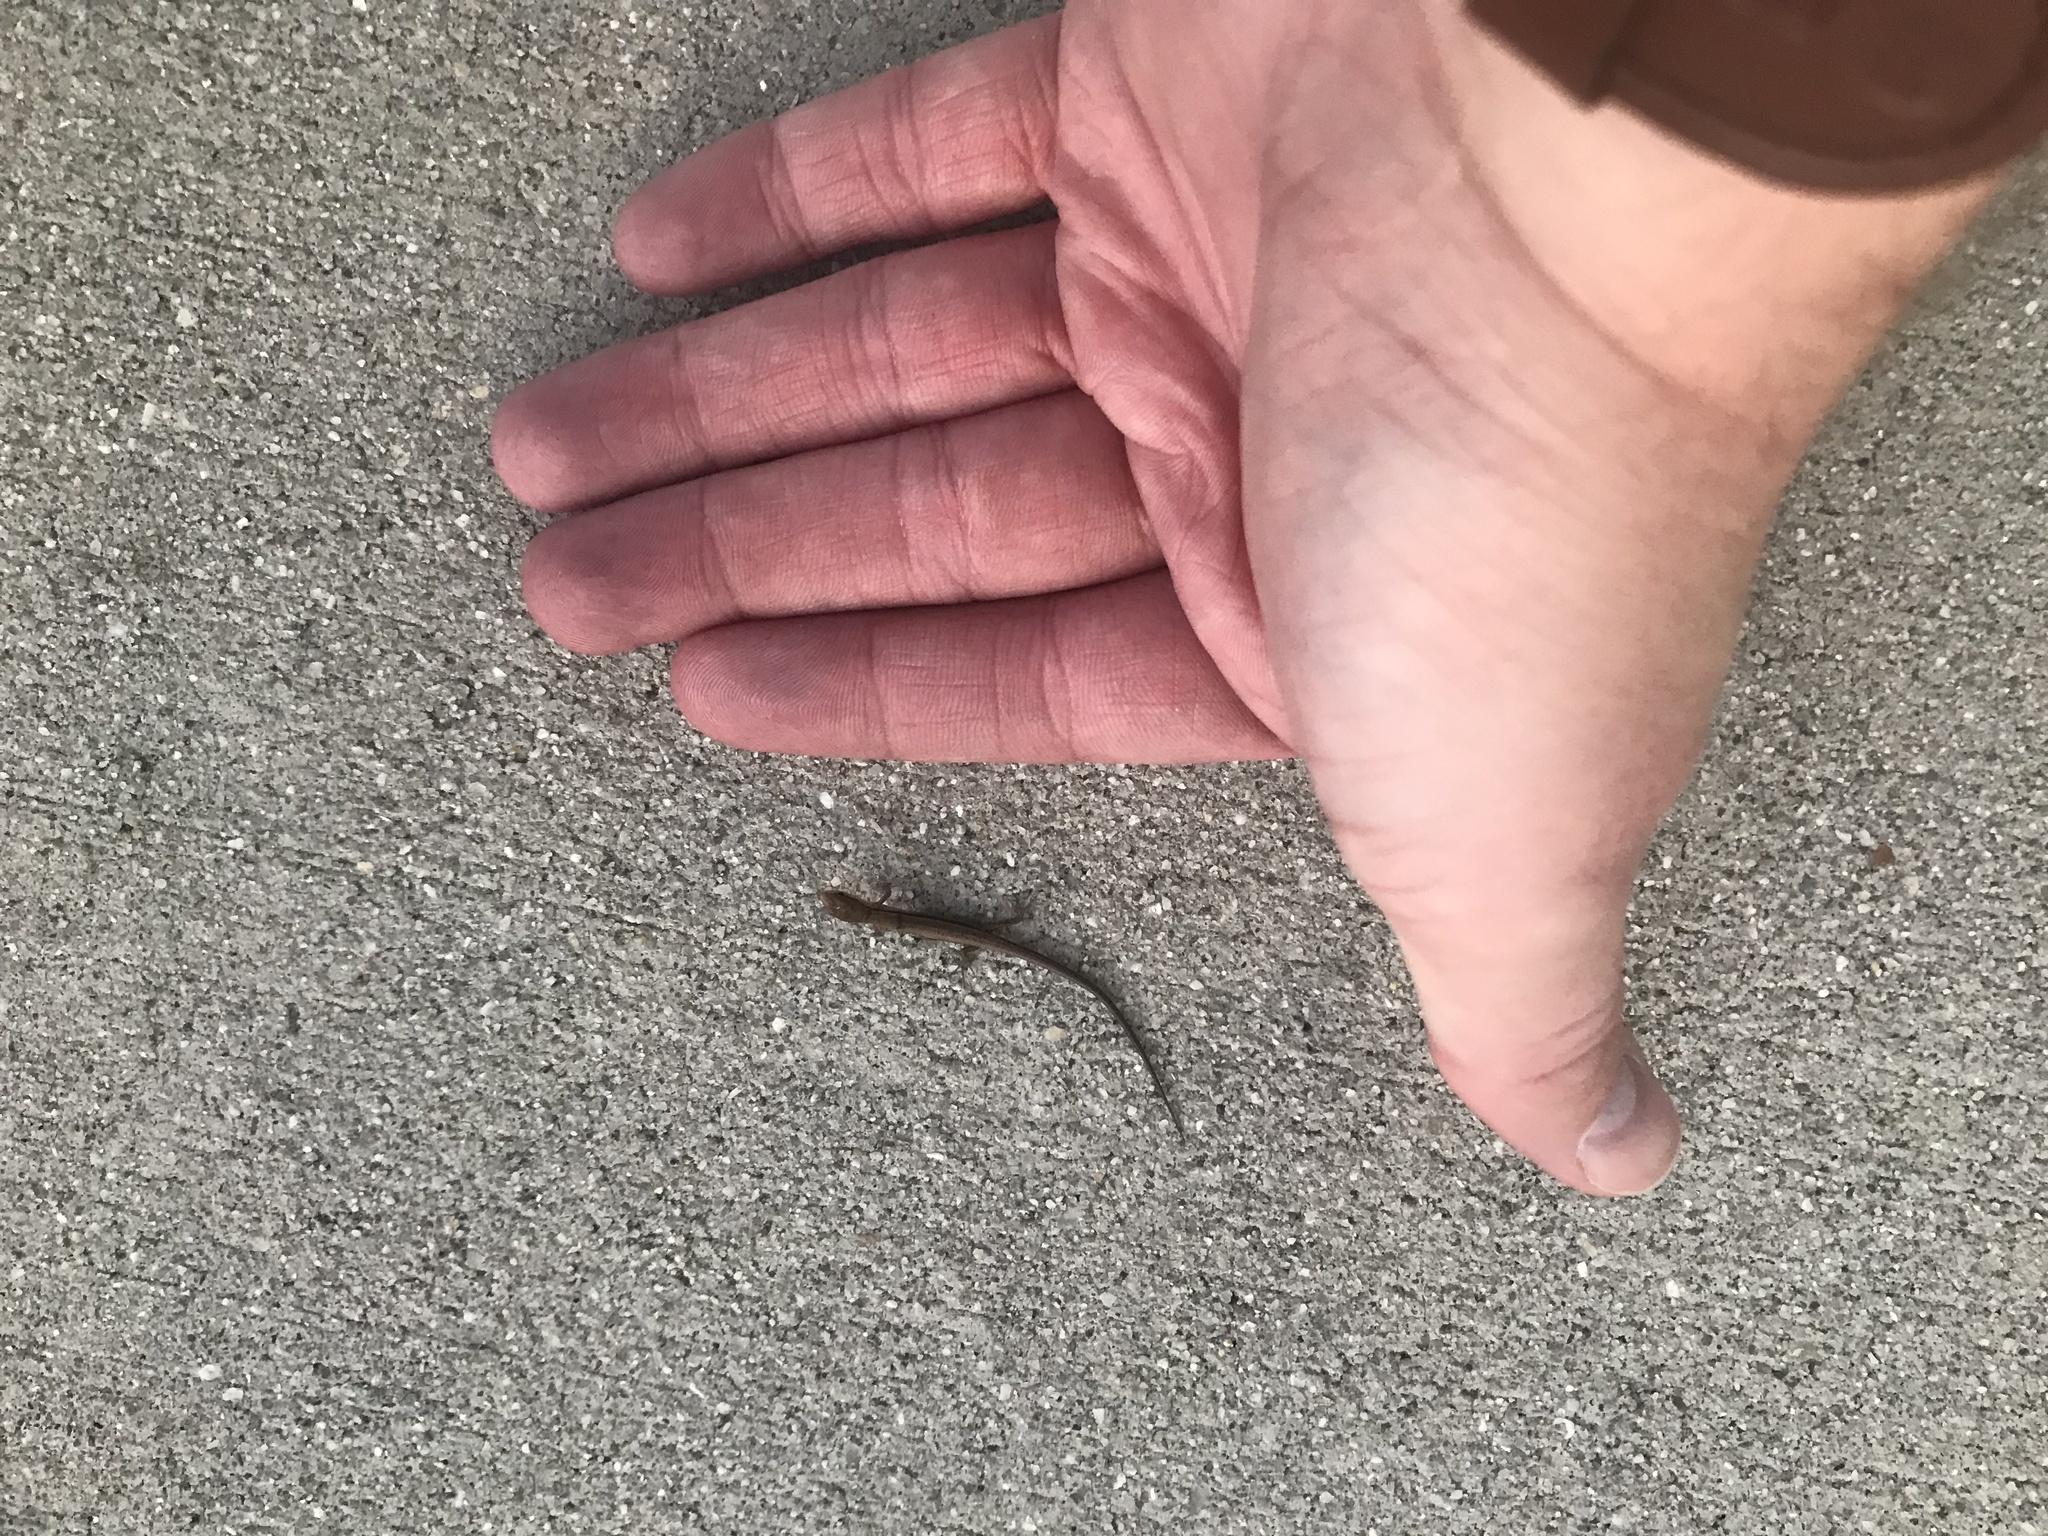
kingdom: Animalia
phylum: Chordata
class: Squamata
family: Scincidae
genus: Scincella
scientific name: Scincella lateralis
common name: Ground skink
